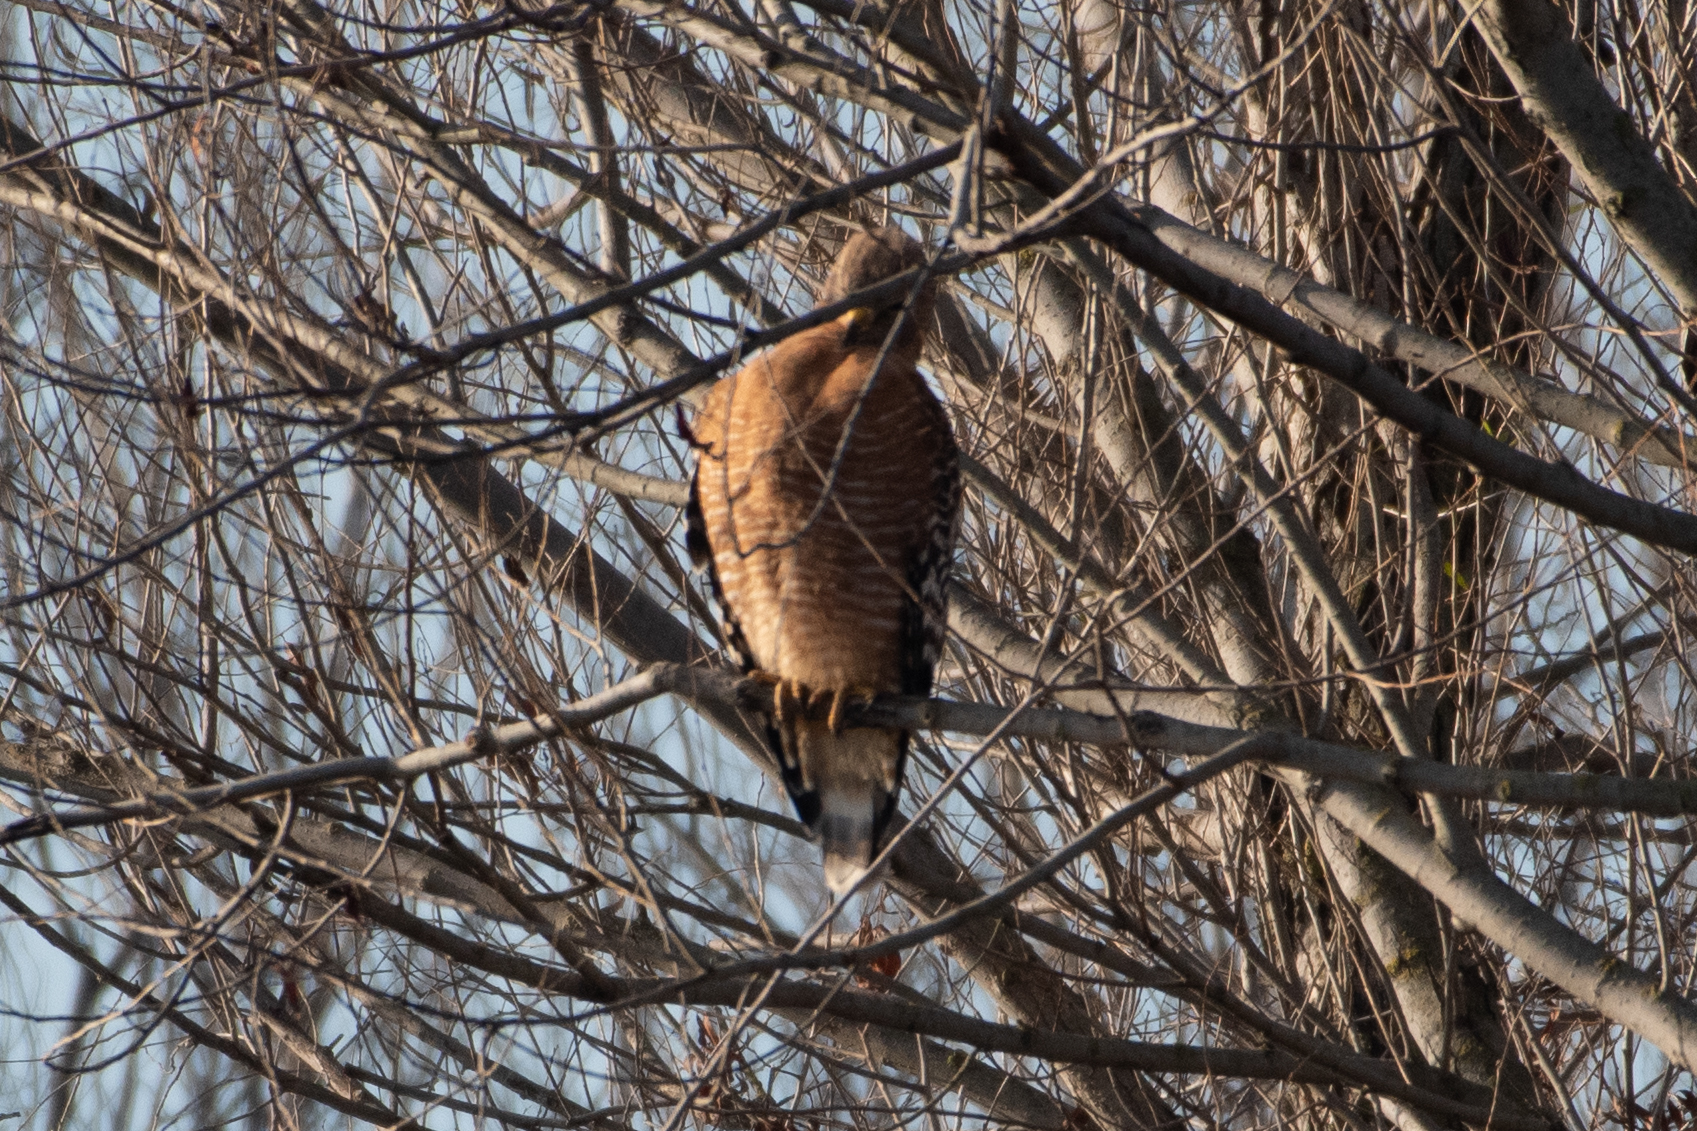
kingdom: Animalia
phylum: Chordata
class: Aves
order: Accipitriformes
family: Accipitridae
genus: Buteo
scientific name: Buteo lineatus
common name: Red-shouldered hawk
